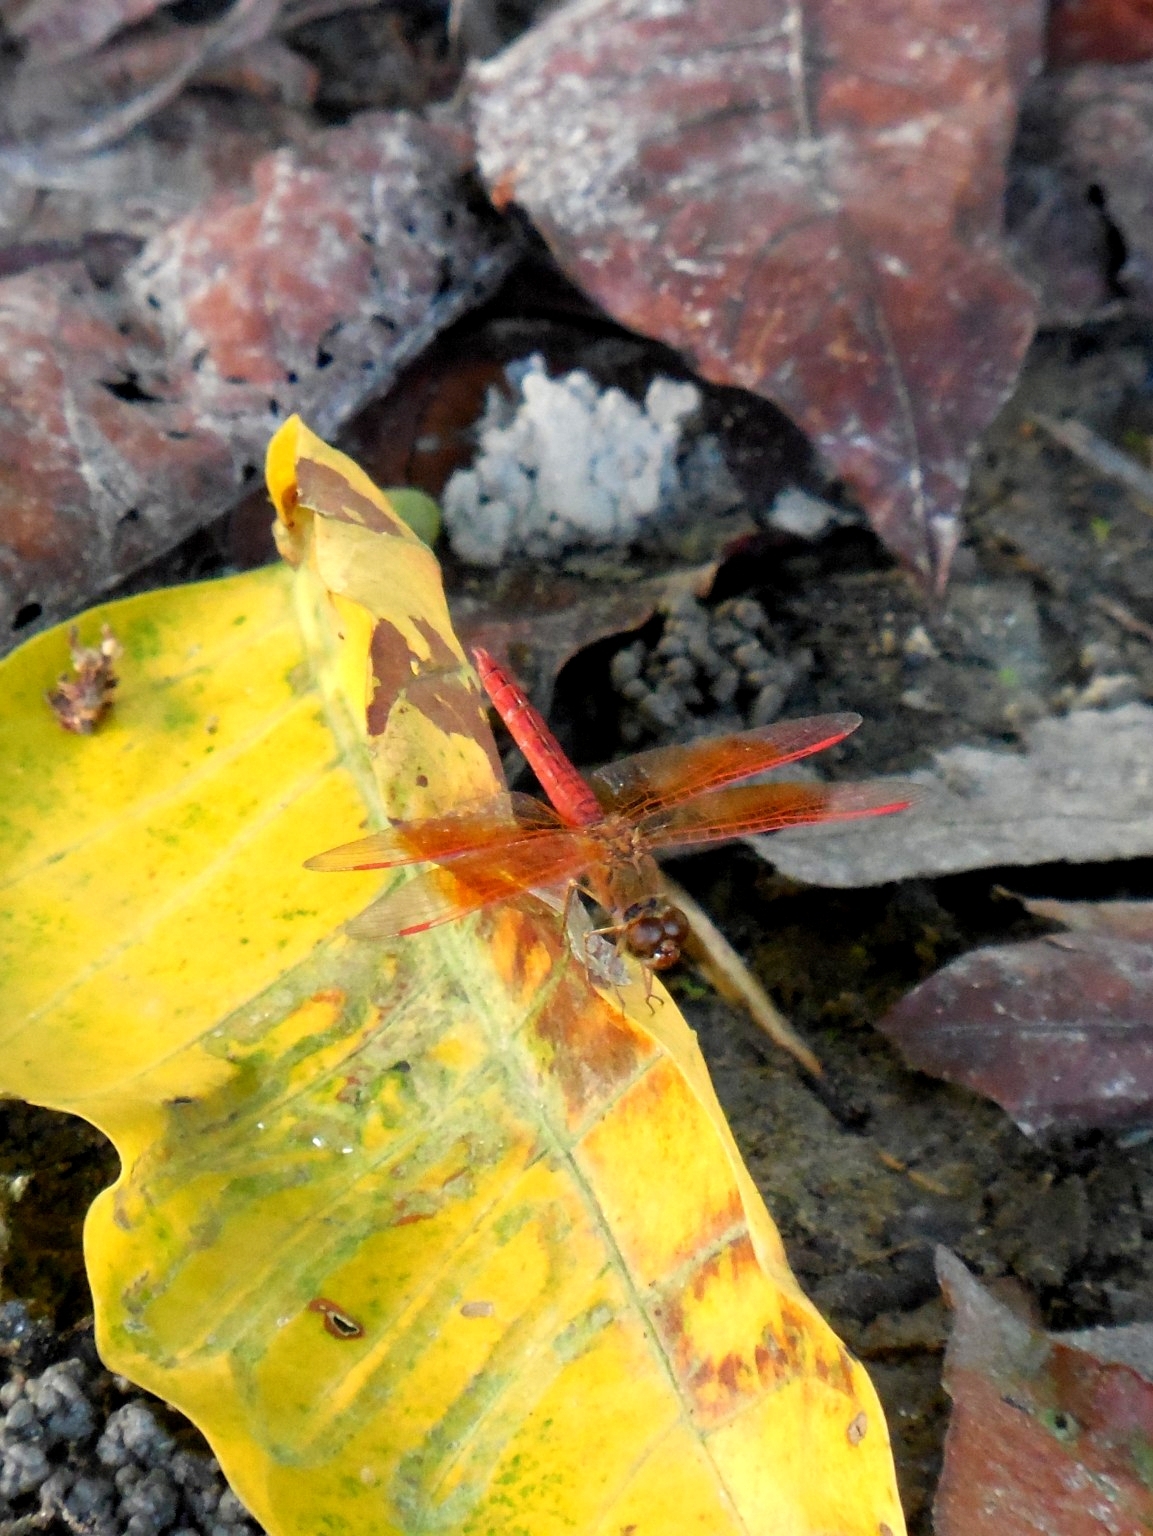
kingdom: Animalia
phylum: Arthropoda
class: Insecta
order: Odonata
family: Libellulidae
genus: Brachythemis
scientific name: Brachythemis contaminata
